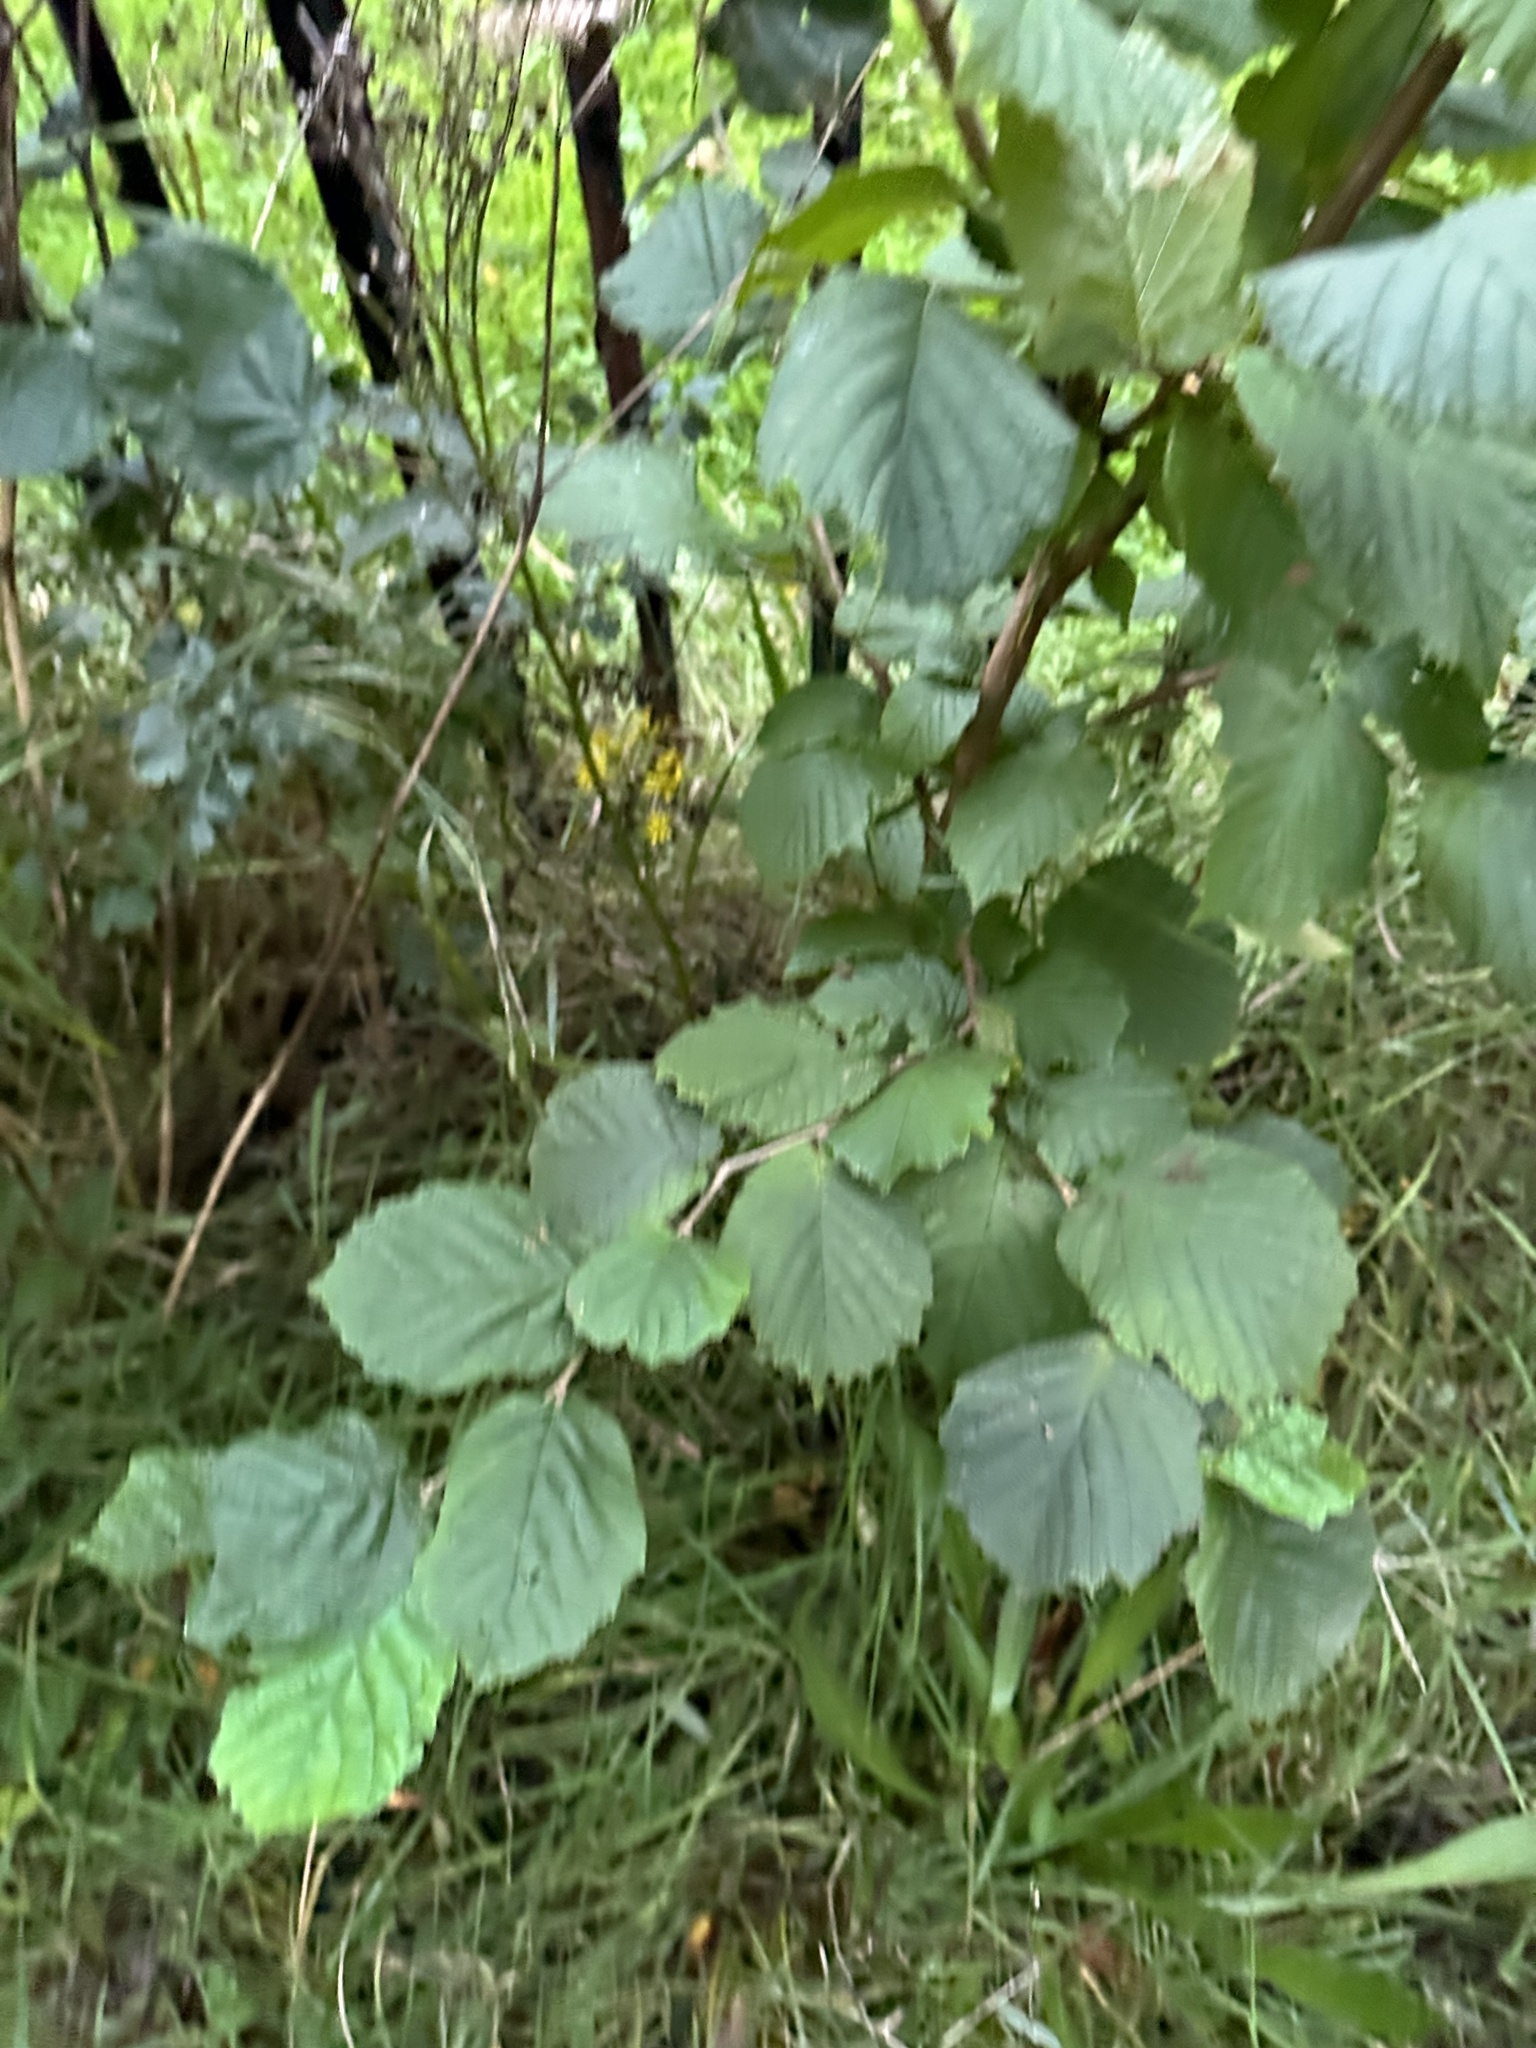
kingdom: Plantae
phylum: Tracheophyta
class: Magnoliopsida
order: Fagales
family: Betulaceae
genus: Corylus
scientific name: Corylus avellana
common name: European hazel
